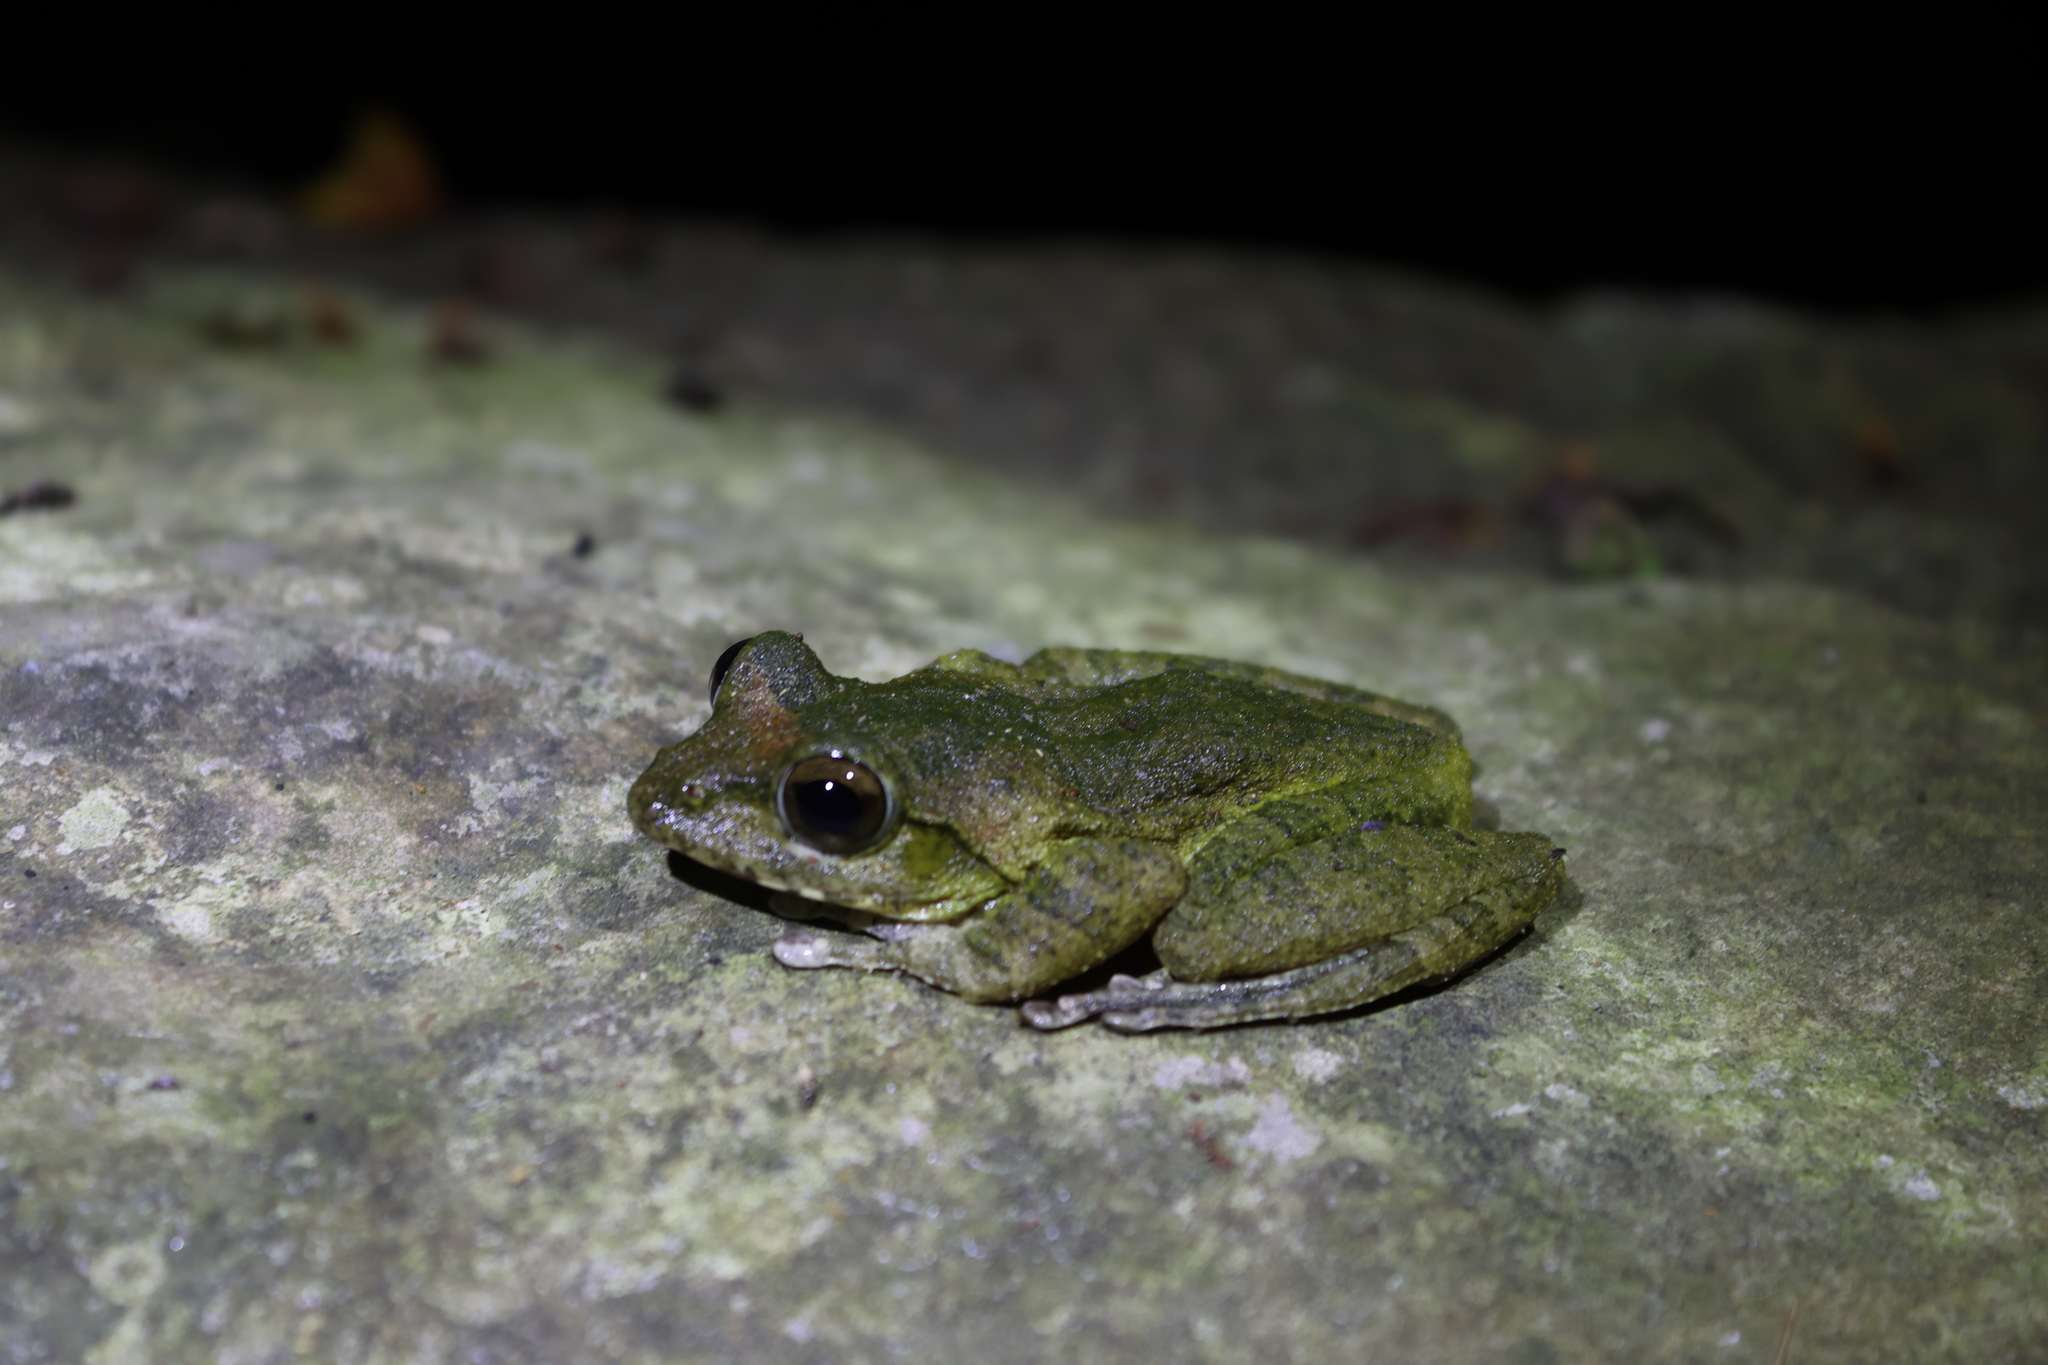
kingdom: Animalia
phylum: Chordata
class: Amphibia
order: Anura
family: Rhacophoridae
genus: Buergeria
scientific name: Buergeria robusta
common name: Brown treefrog
